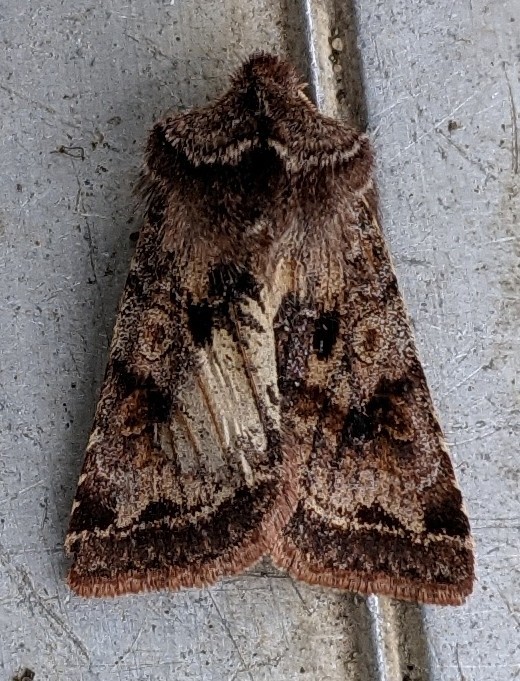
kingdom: Animalia
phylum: Arthropoda
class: Insecta
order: Lepidoptera
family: Noctuidae
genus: Cerastis
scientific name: Cerastis salicarum
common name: Willow dart
